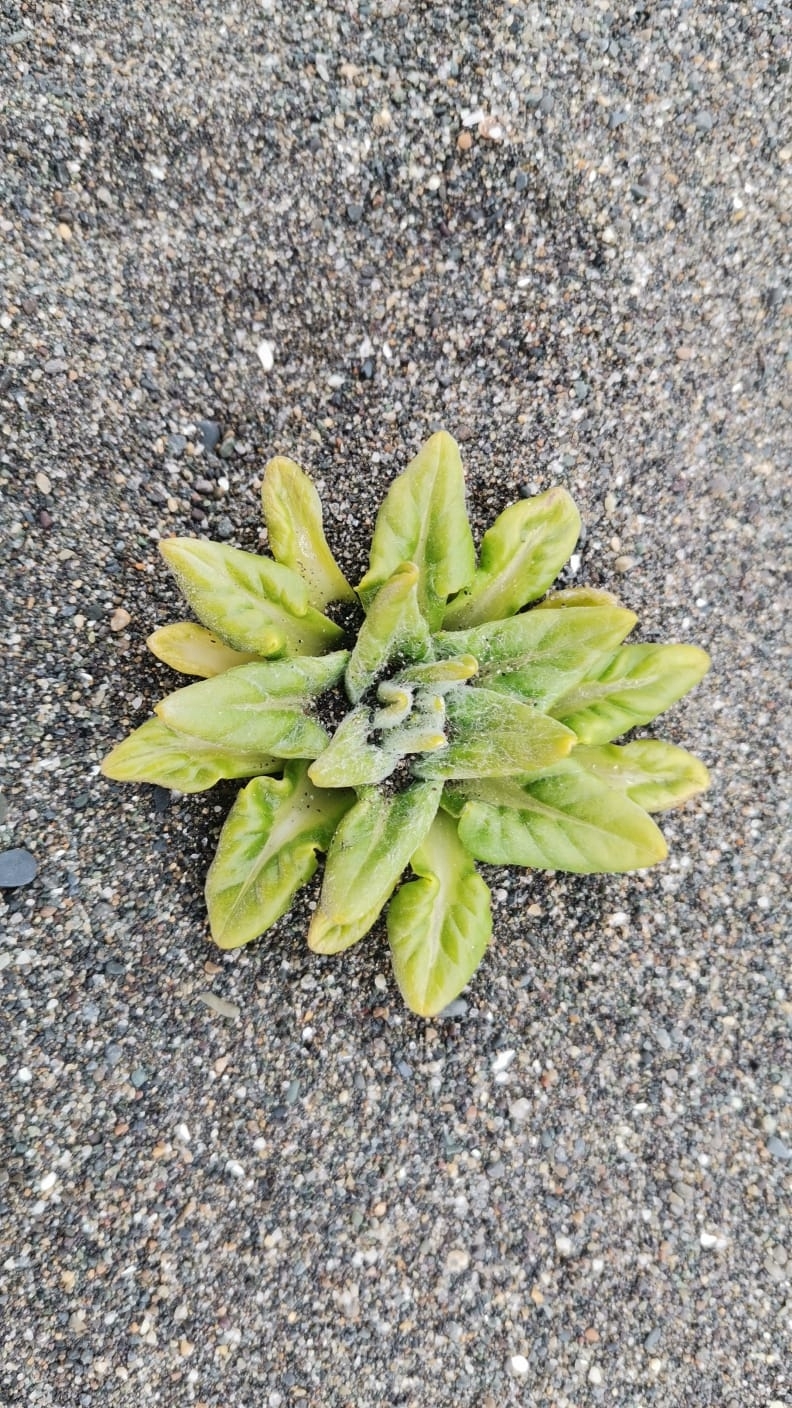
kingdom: Plantae
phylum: Tracheophyta
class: Magnoliopsida
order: Asterales
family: Asteraceae
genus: Jacobaea
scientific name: Jacobaea pseudoarnica
